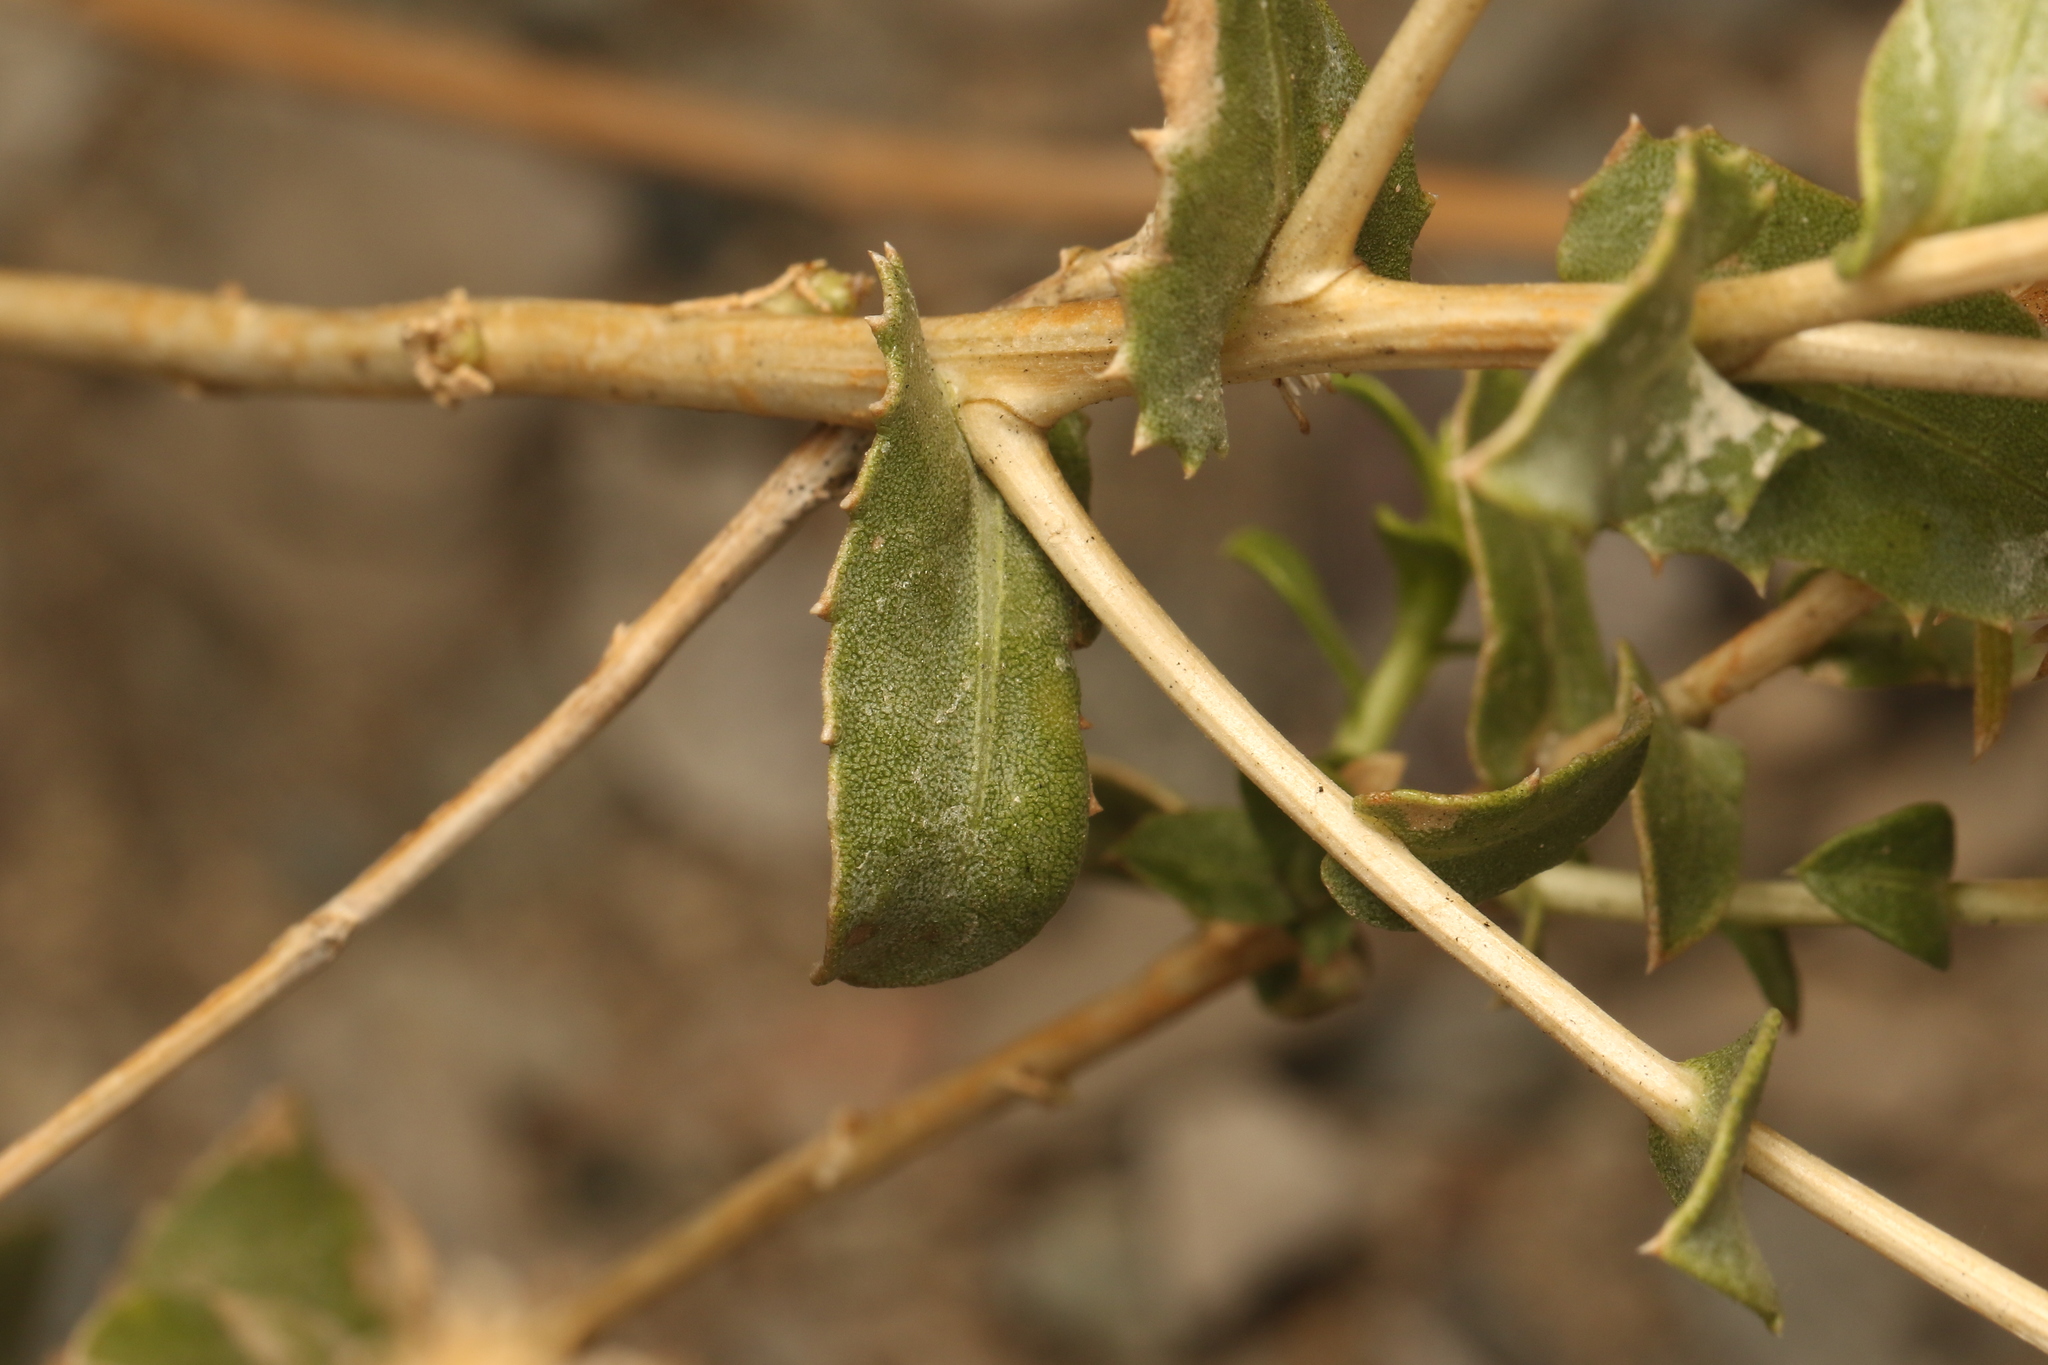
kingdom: Plantae
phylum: Tracheophyta
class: Magnoliopsida
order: Asterales
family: Asteraceae
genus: Grindelia
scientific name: Grindelia hirsutula
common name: Hairy gumweed
